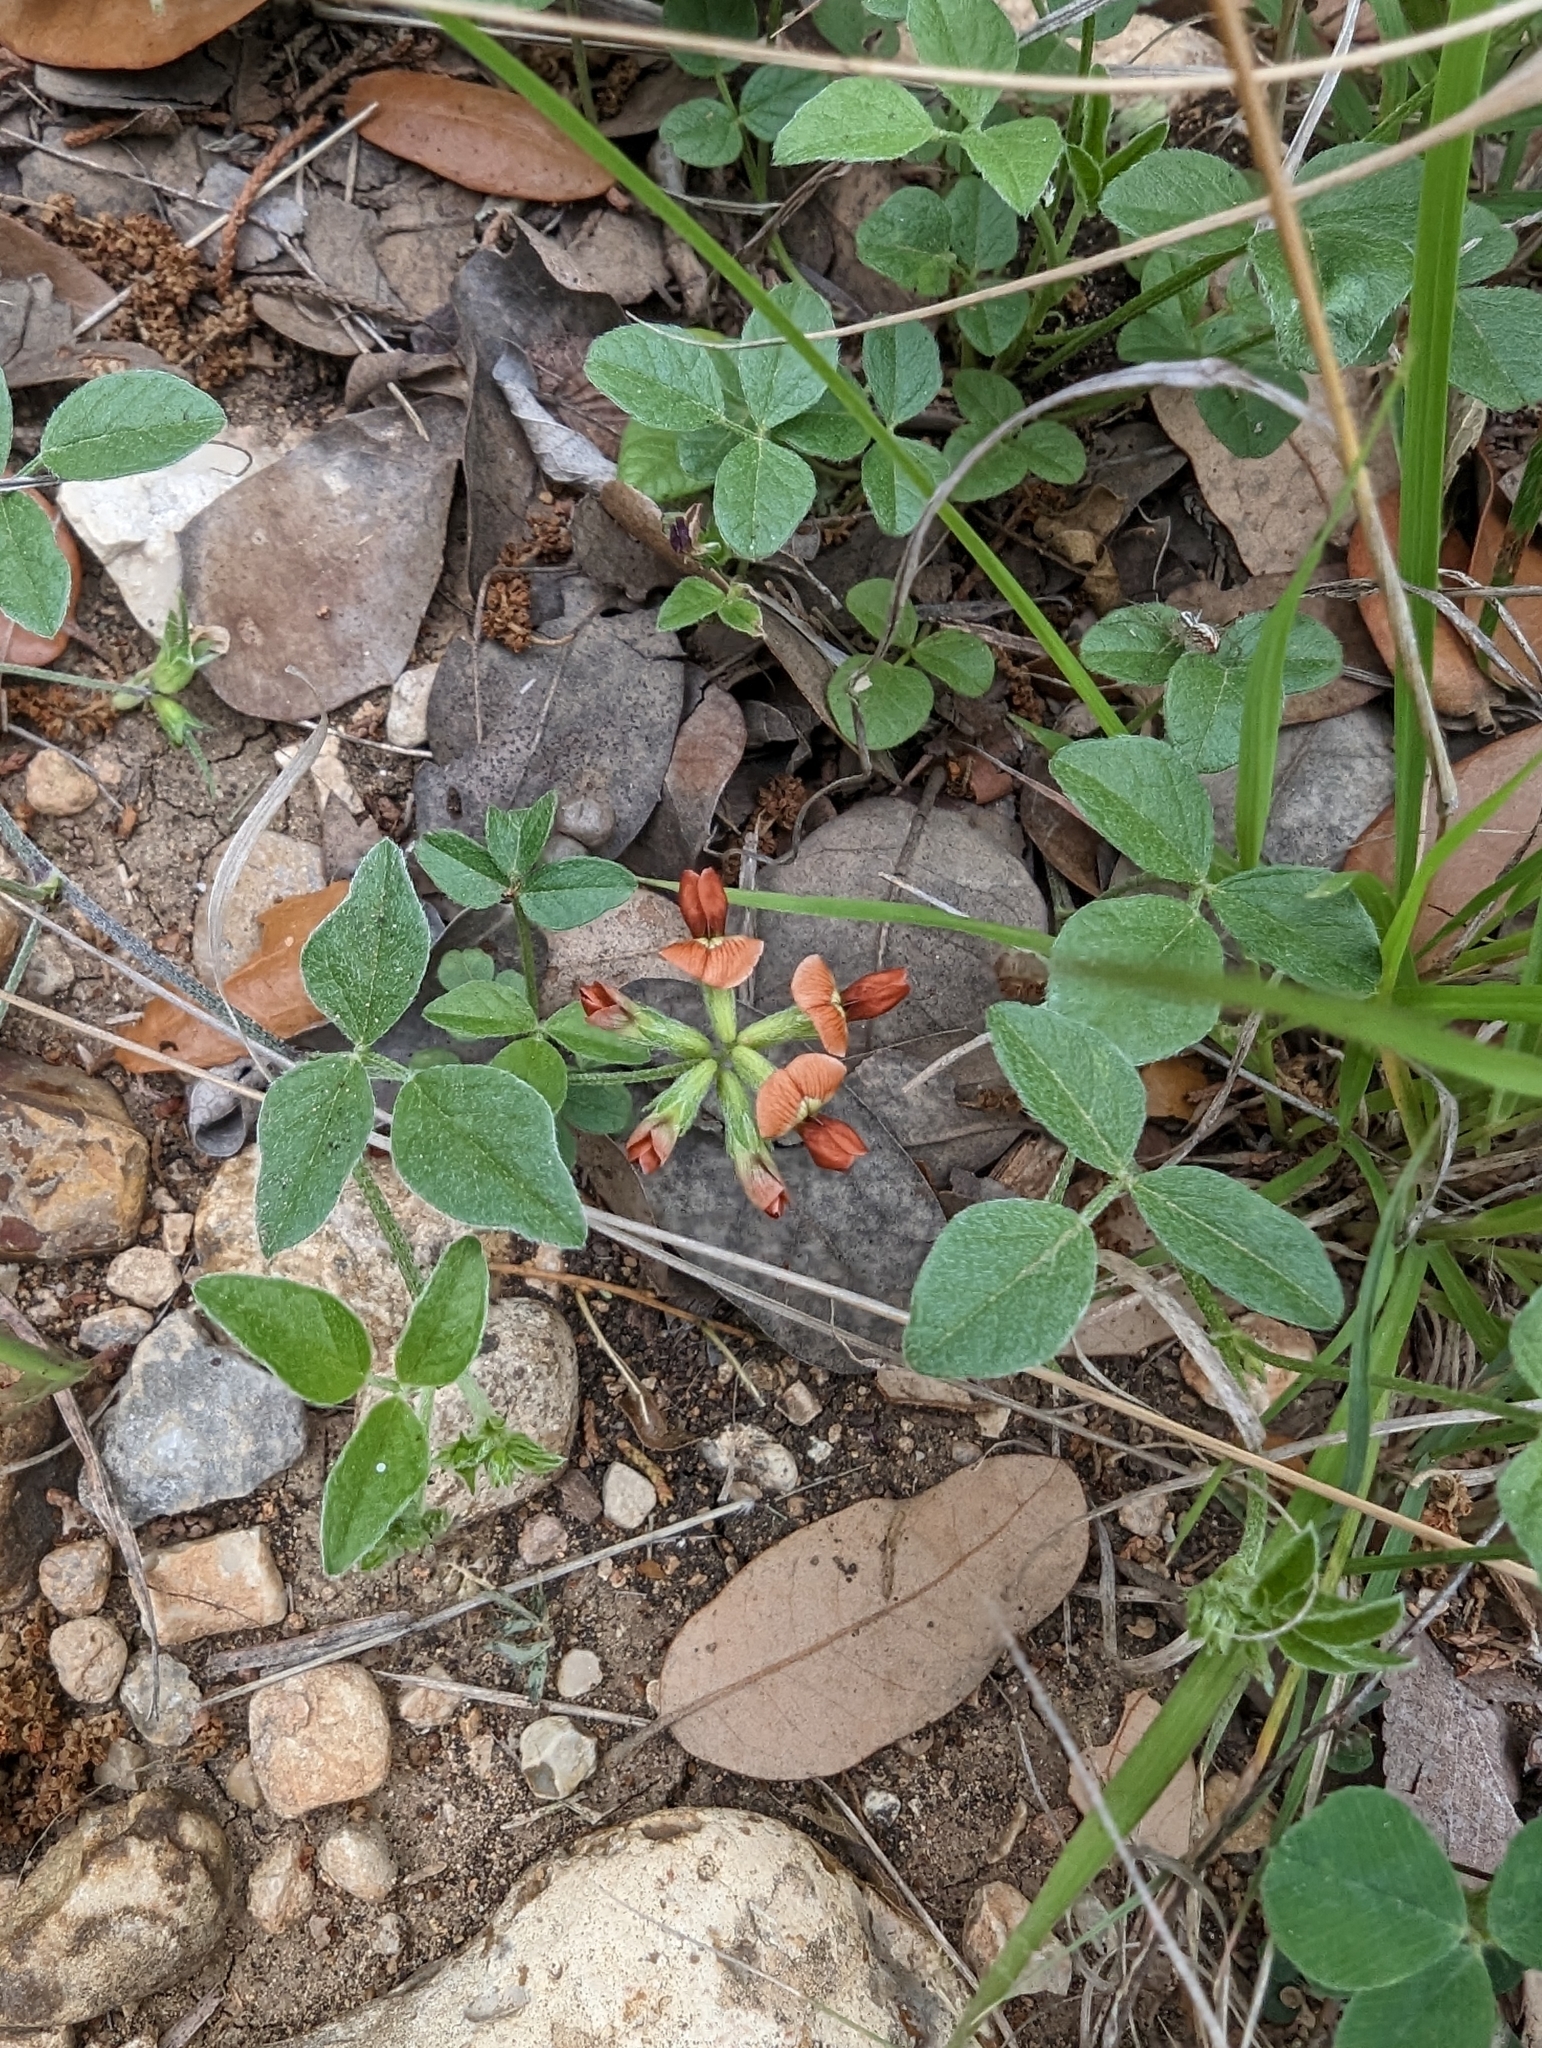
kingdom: Plantae
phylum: Tracheophyta
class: Magnoliopsida
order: Fabales
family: Fabaceae
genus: Pediomelum
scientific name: Pediomelum rhombifolium
